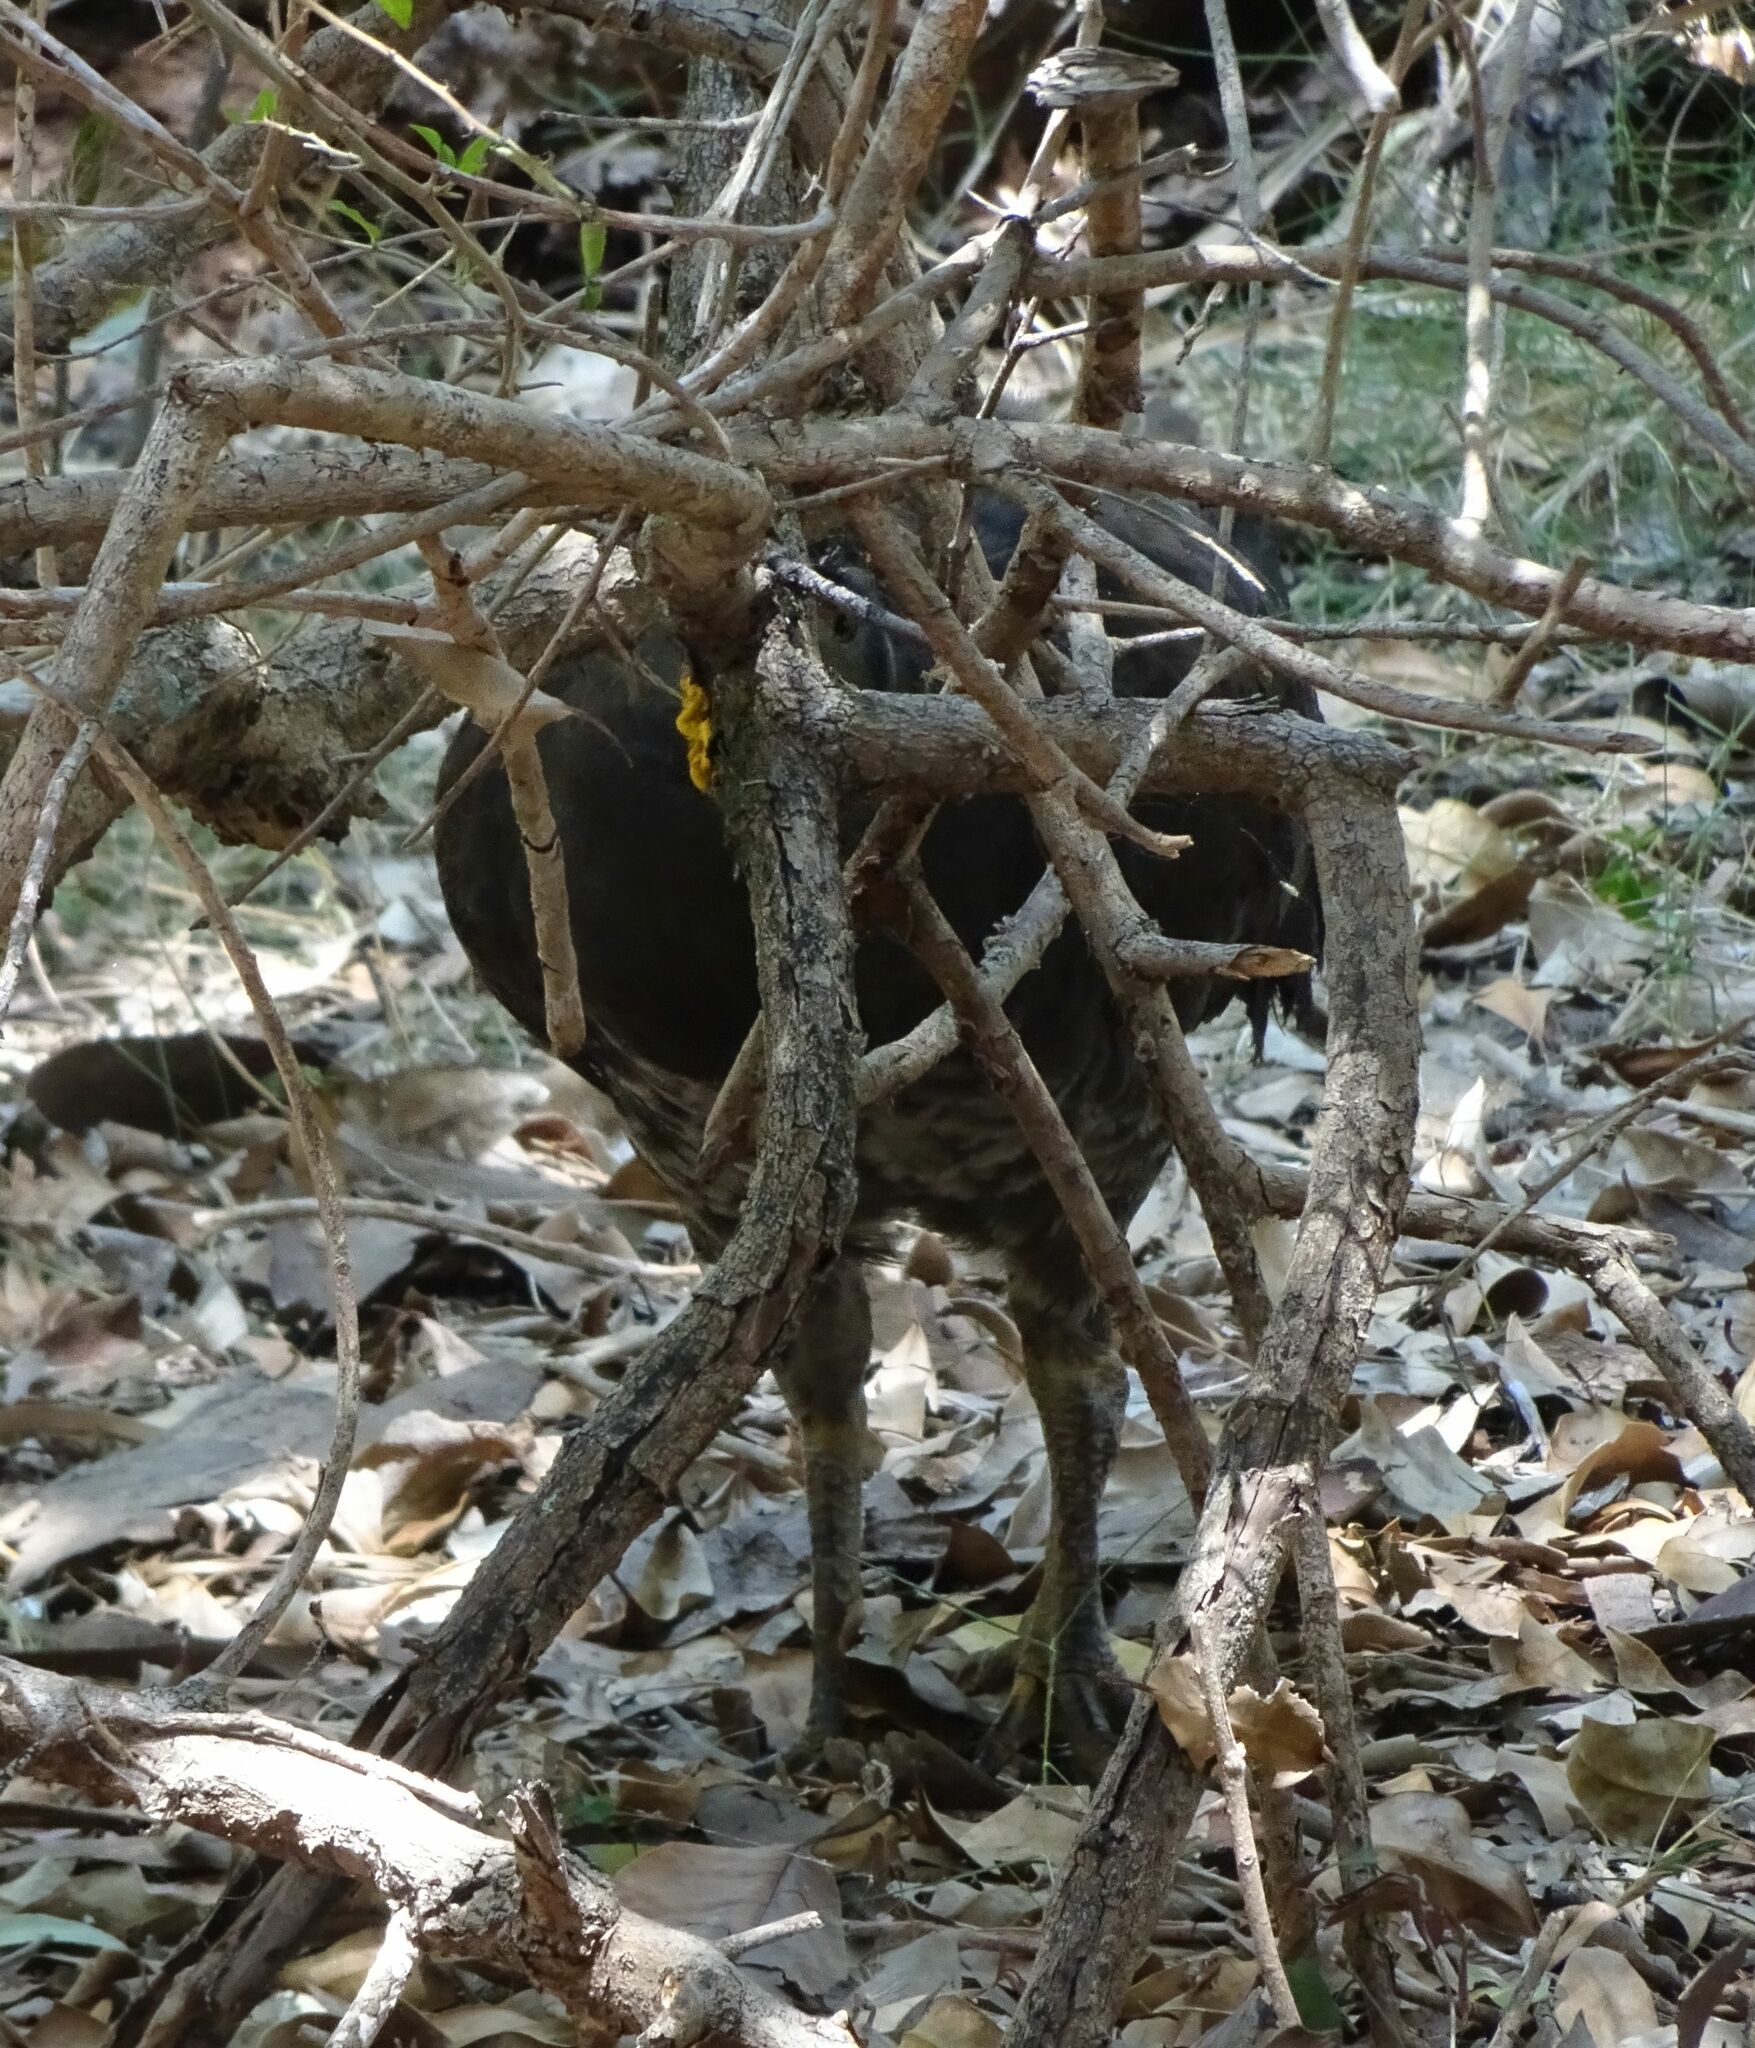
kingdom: Animalia
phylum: Chordata
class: Aves
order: Galliformes
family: Megapodiidae
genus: Alectura
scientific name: Alectura lathami
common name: Australian brushturkey
